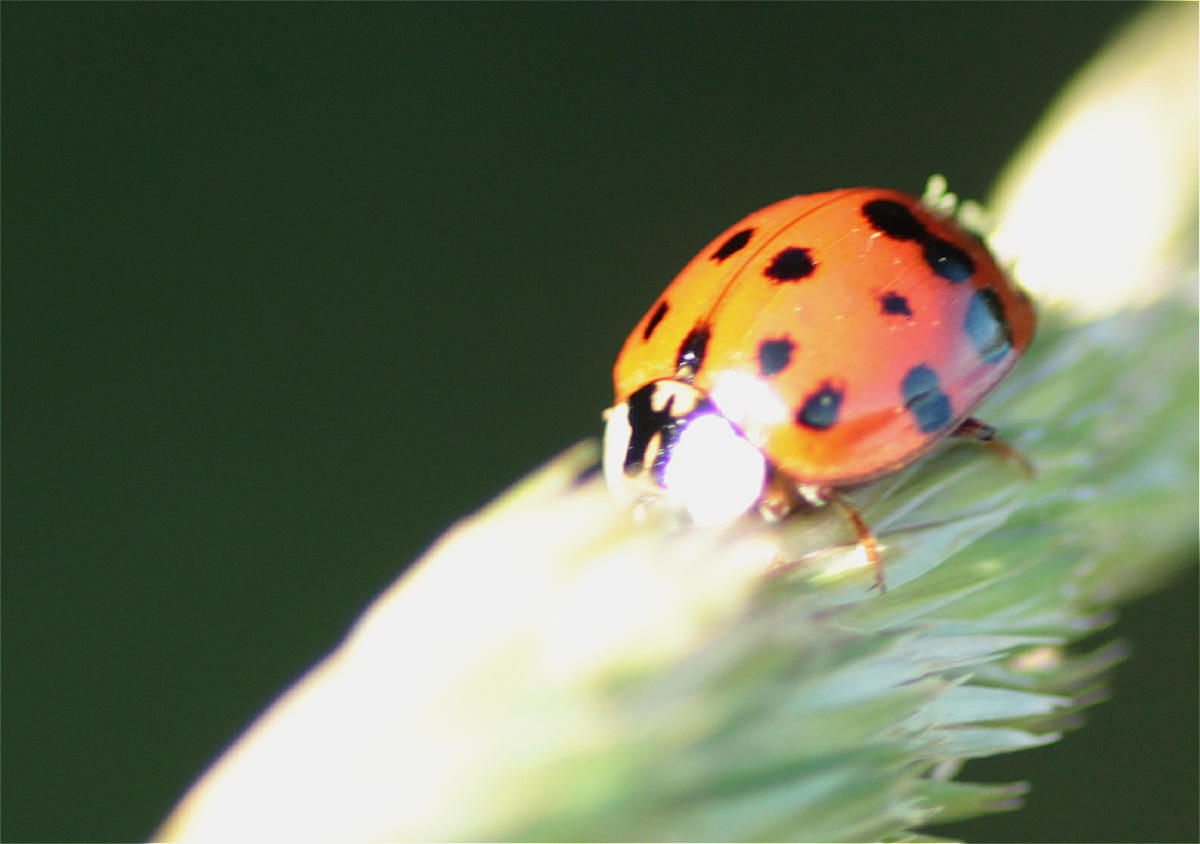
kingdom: Animalia
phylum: Arthropoda
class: Insecta
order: Coleoptera
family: Coccinellidae
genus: Harmonia
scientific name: Harmonia axyridis
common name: Harlequin ladybird
